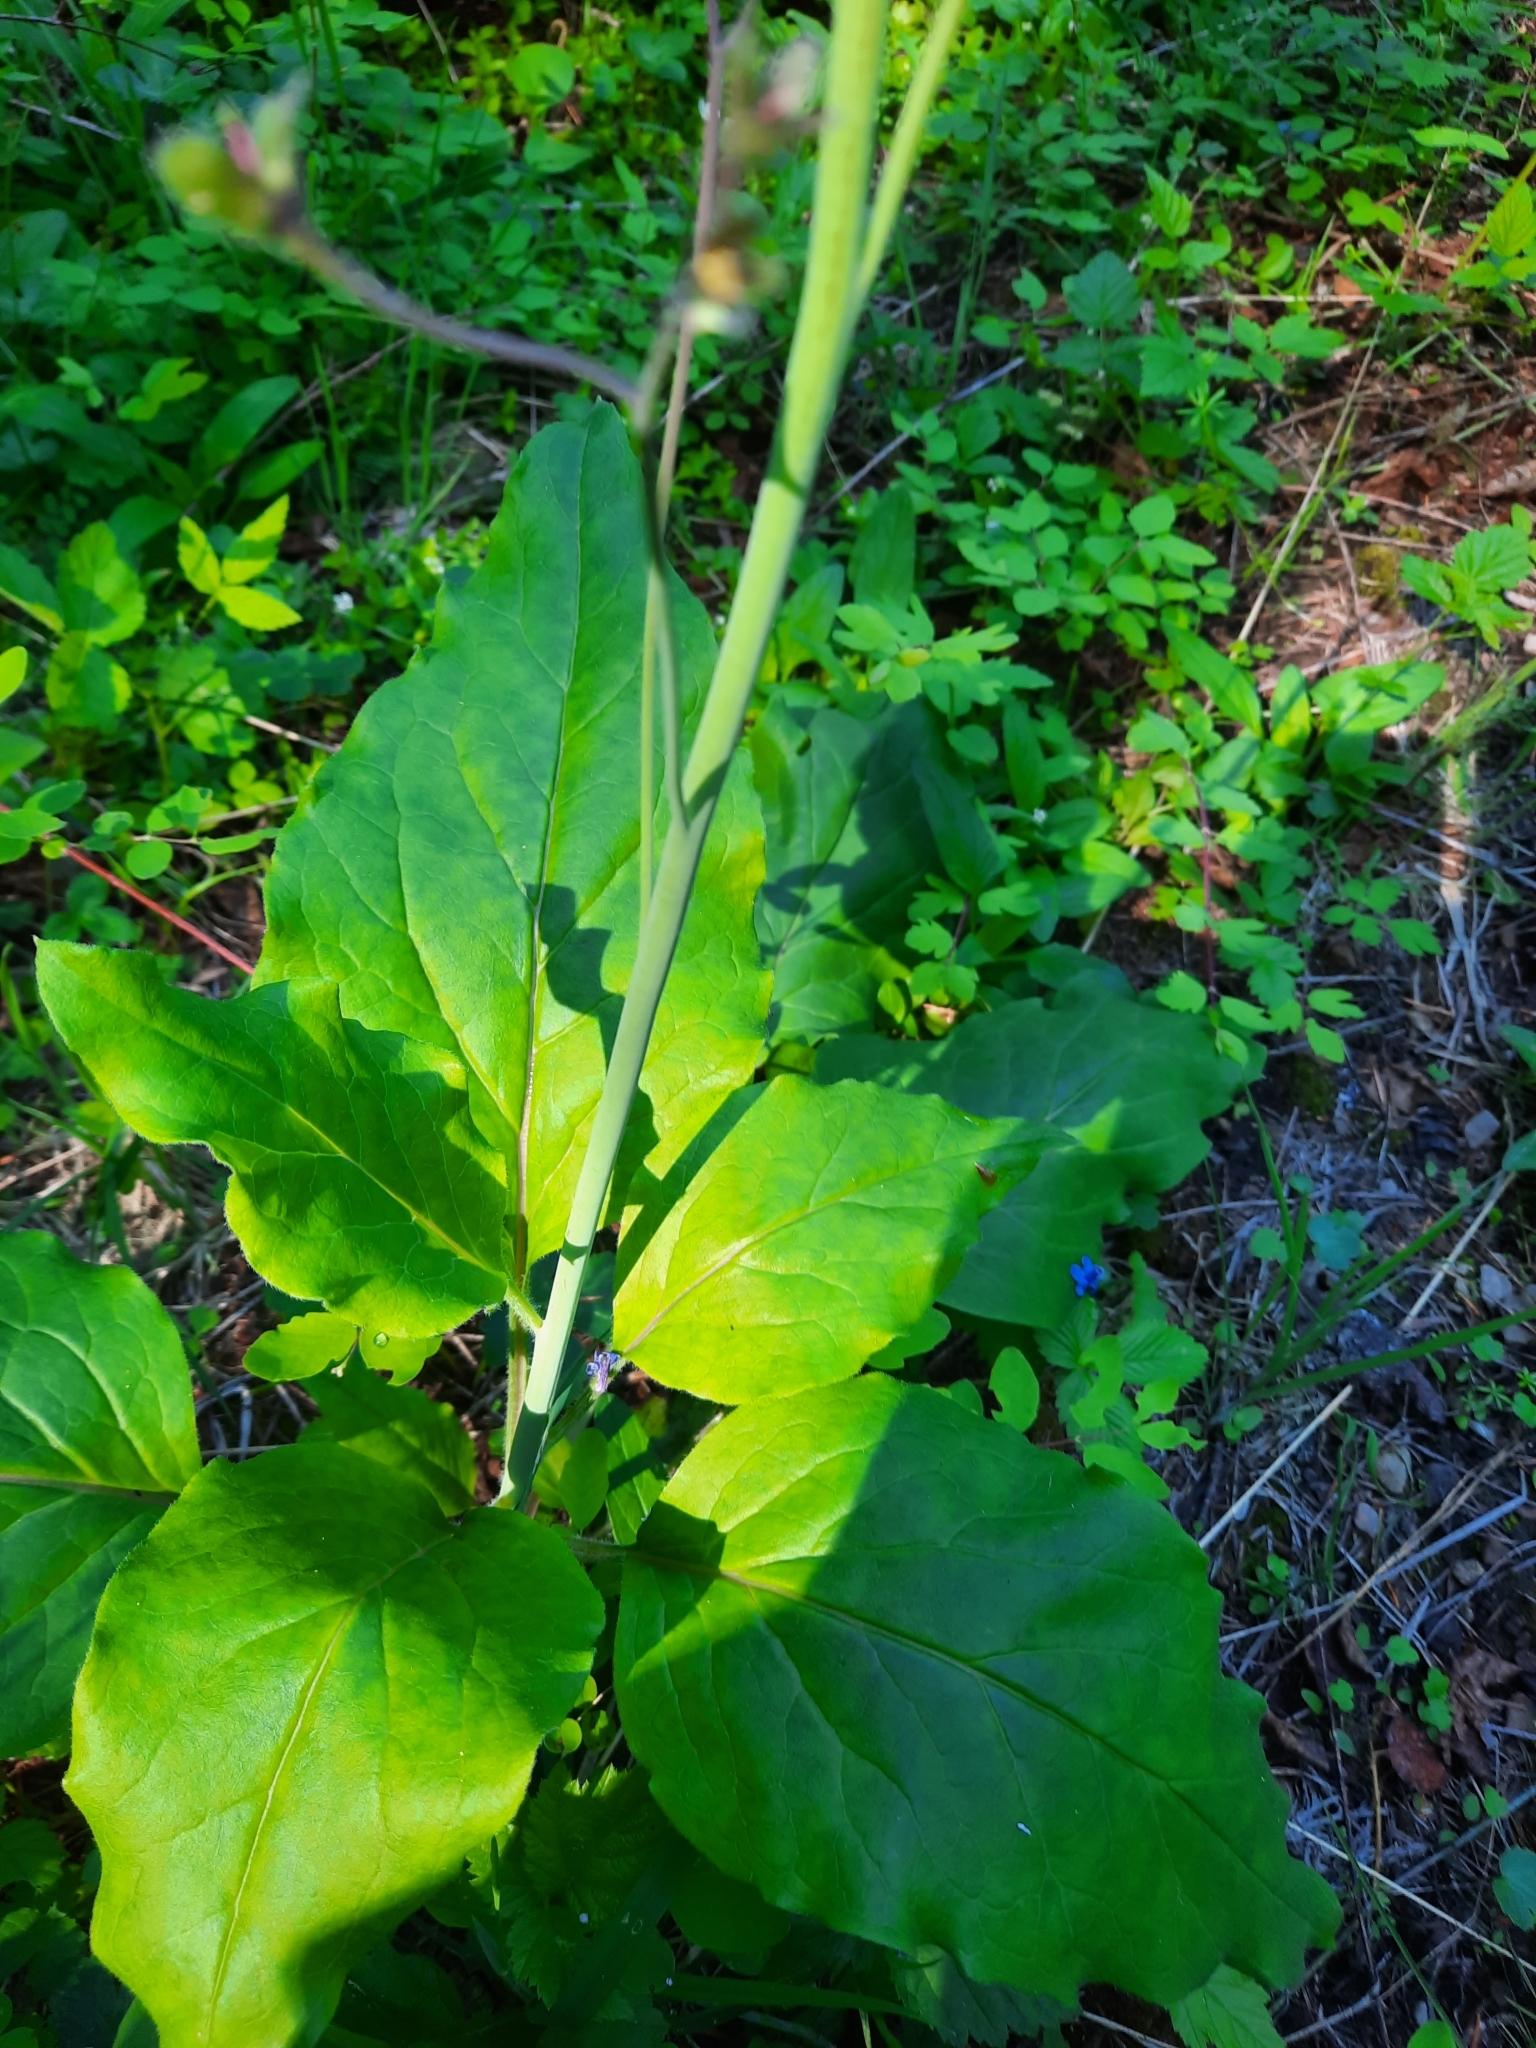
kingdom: Plantae
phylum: Tracheophyta
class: Magnoliopsida
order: Boraginales
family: Boraginaceae
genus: Adelinia
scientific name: Adelinia grande
